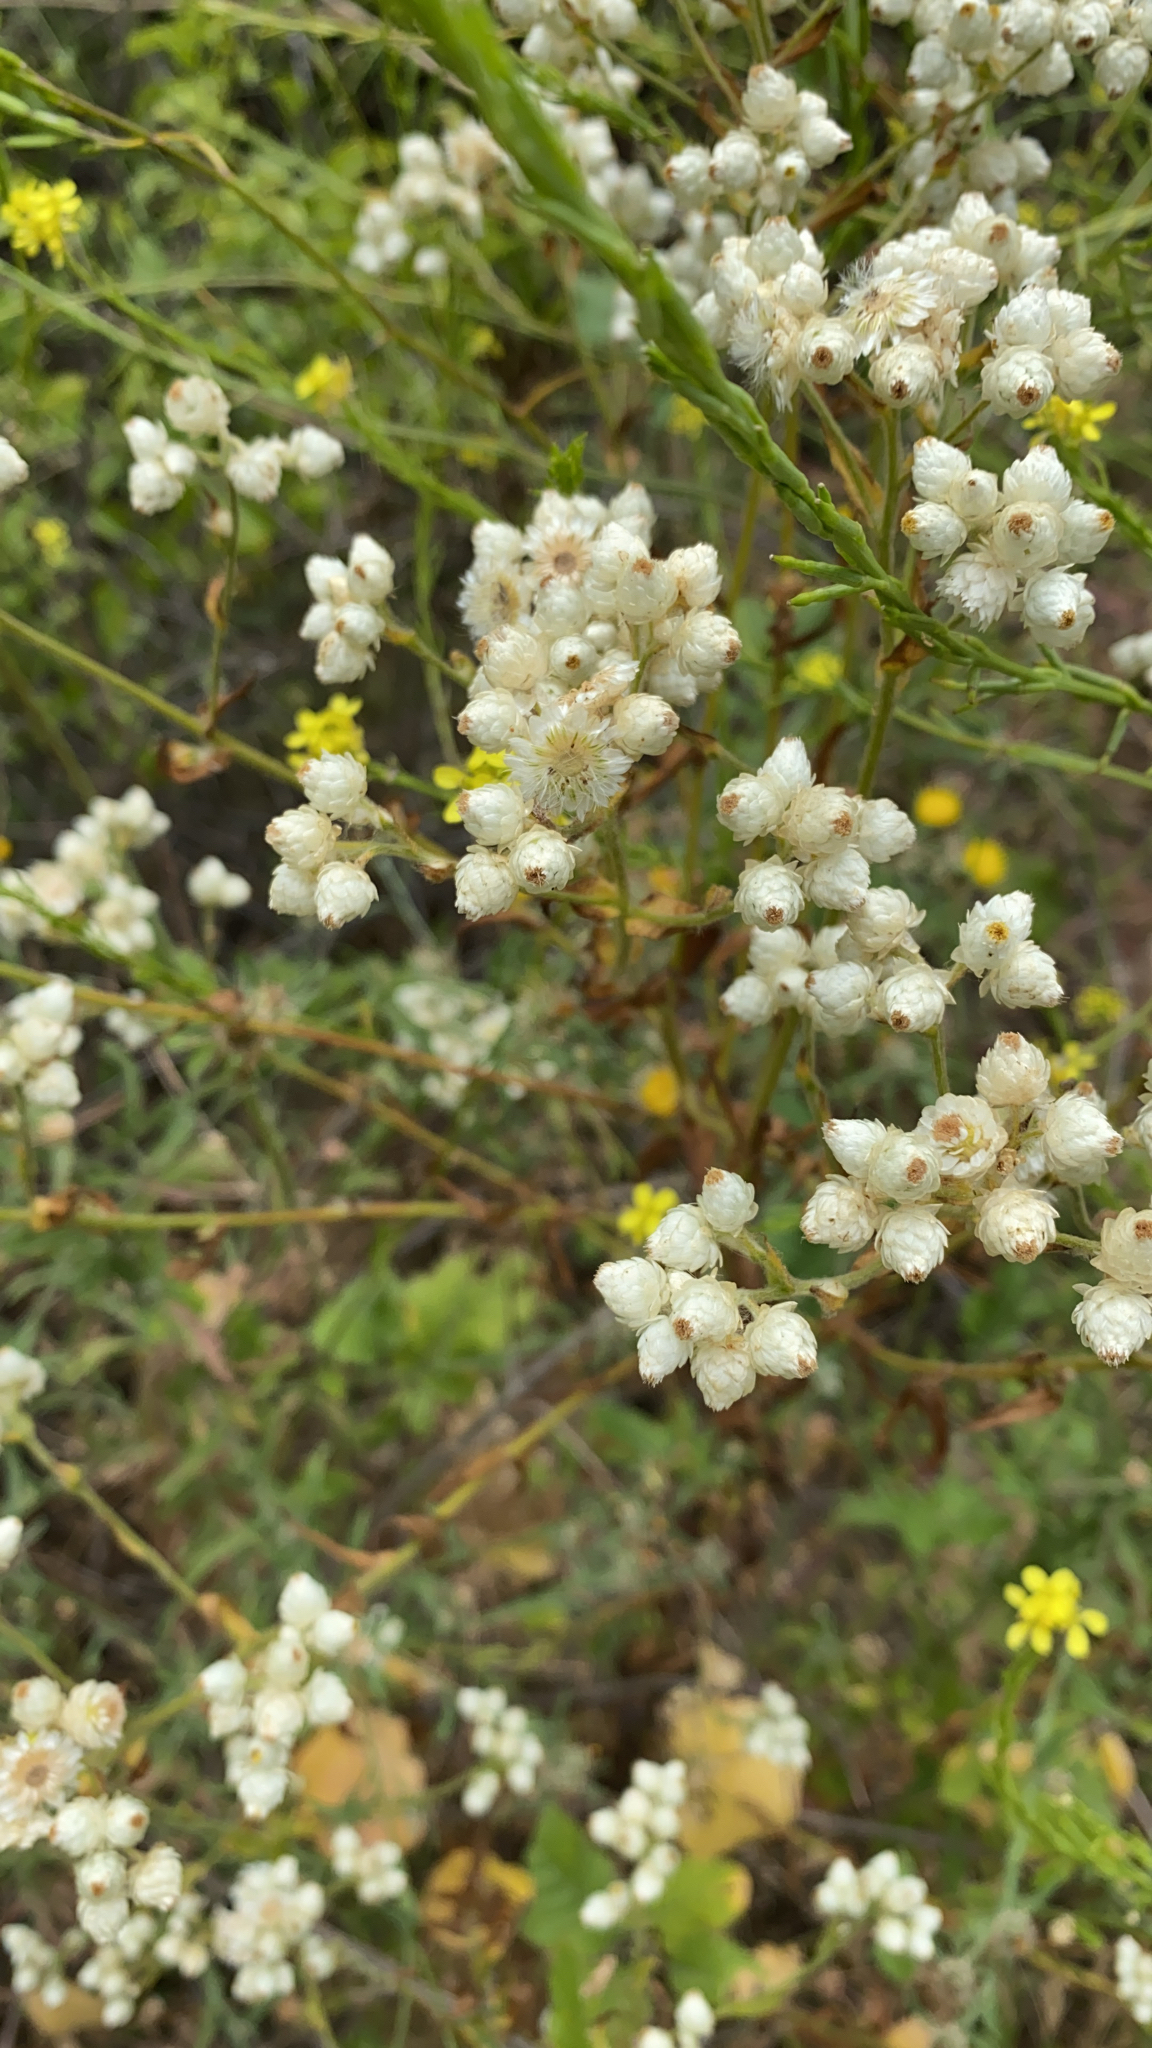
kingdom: Plantae
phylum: Tracheophyta
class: Magnoliopsida
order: Asterales
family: Asteraceae
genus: Pseudognaphalium
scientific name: Pseudognaphalium californicum
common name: California rabbit-tobacco
